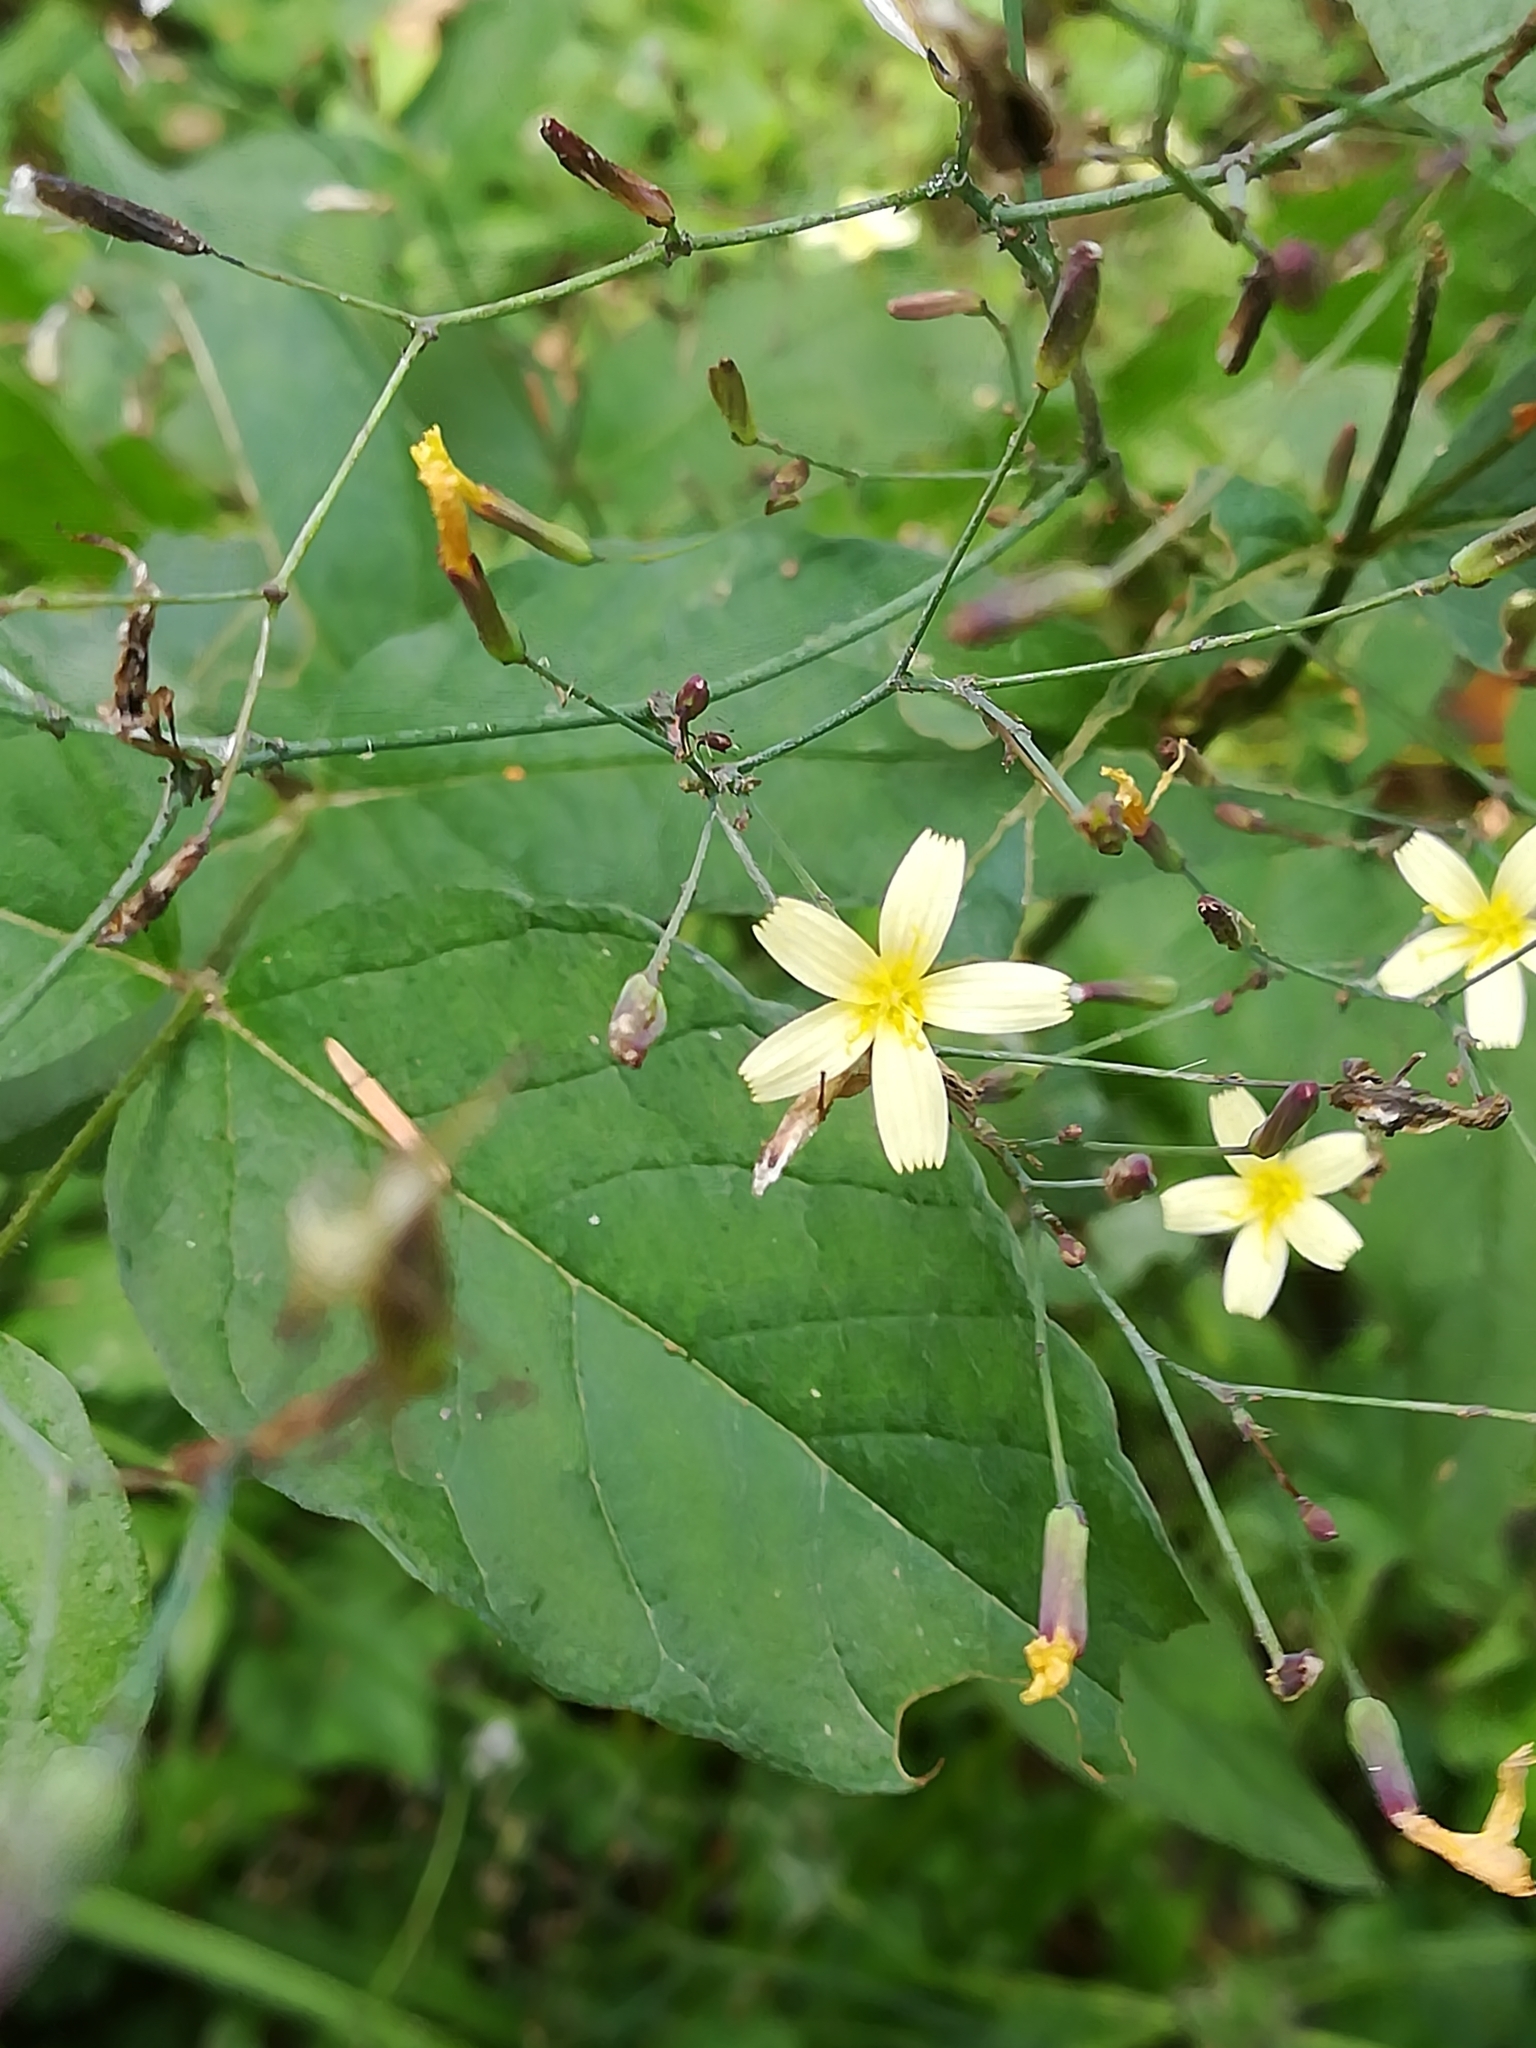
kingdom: Plantae
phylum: Tracheophyta
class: Magnoliopsida
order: Asterales
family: Asteraceae
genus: Mycelis
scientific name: Mycelis muralis
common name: Wall lettuce
